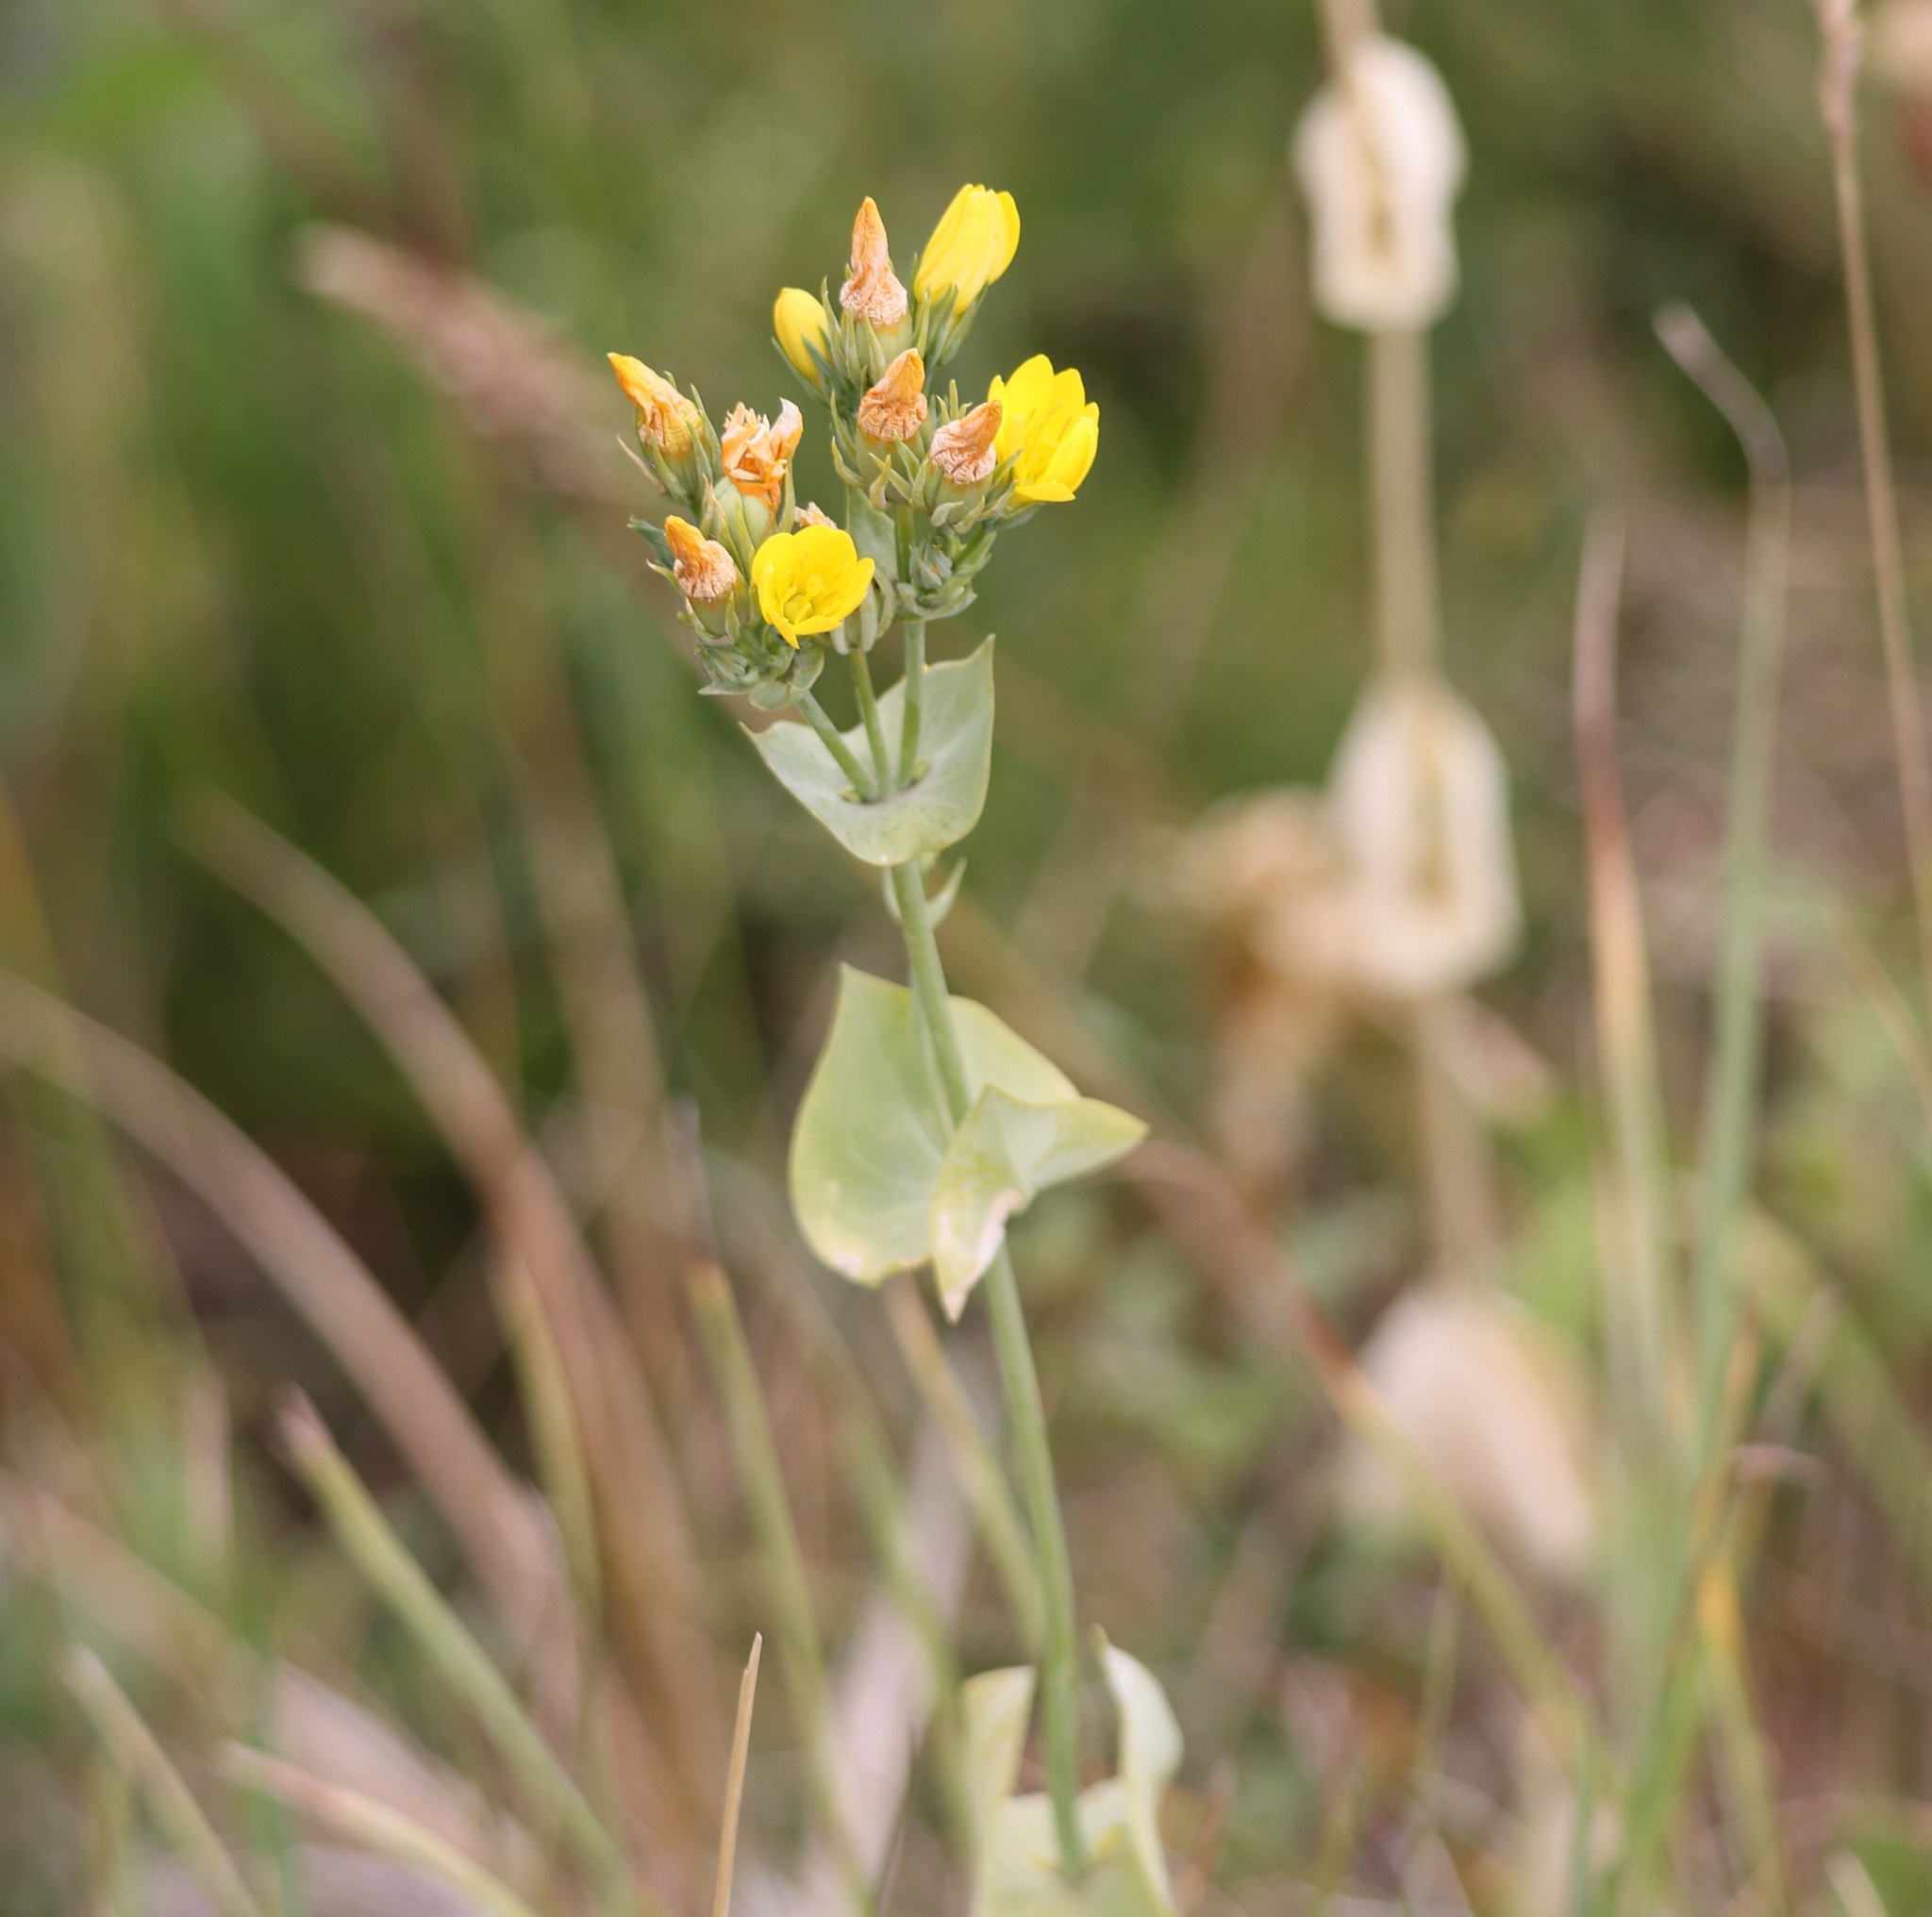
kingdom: Plantae
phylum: Tracheophyta
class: Magnoliopsida
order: Gentianales
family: Gentianaceae
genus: Blackstonia
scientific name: Blackstonia perfoliata
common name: Yellow-wort
